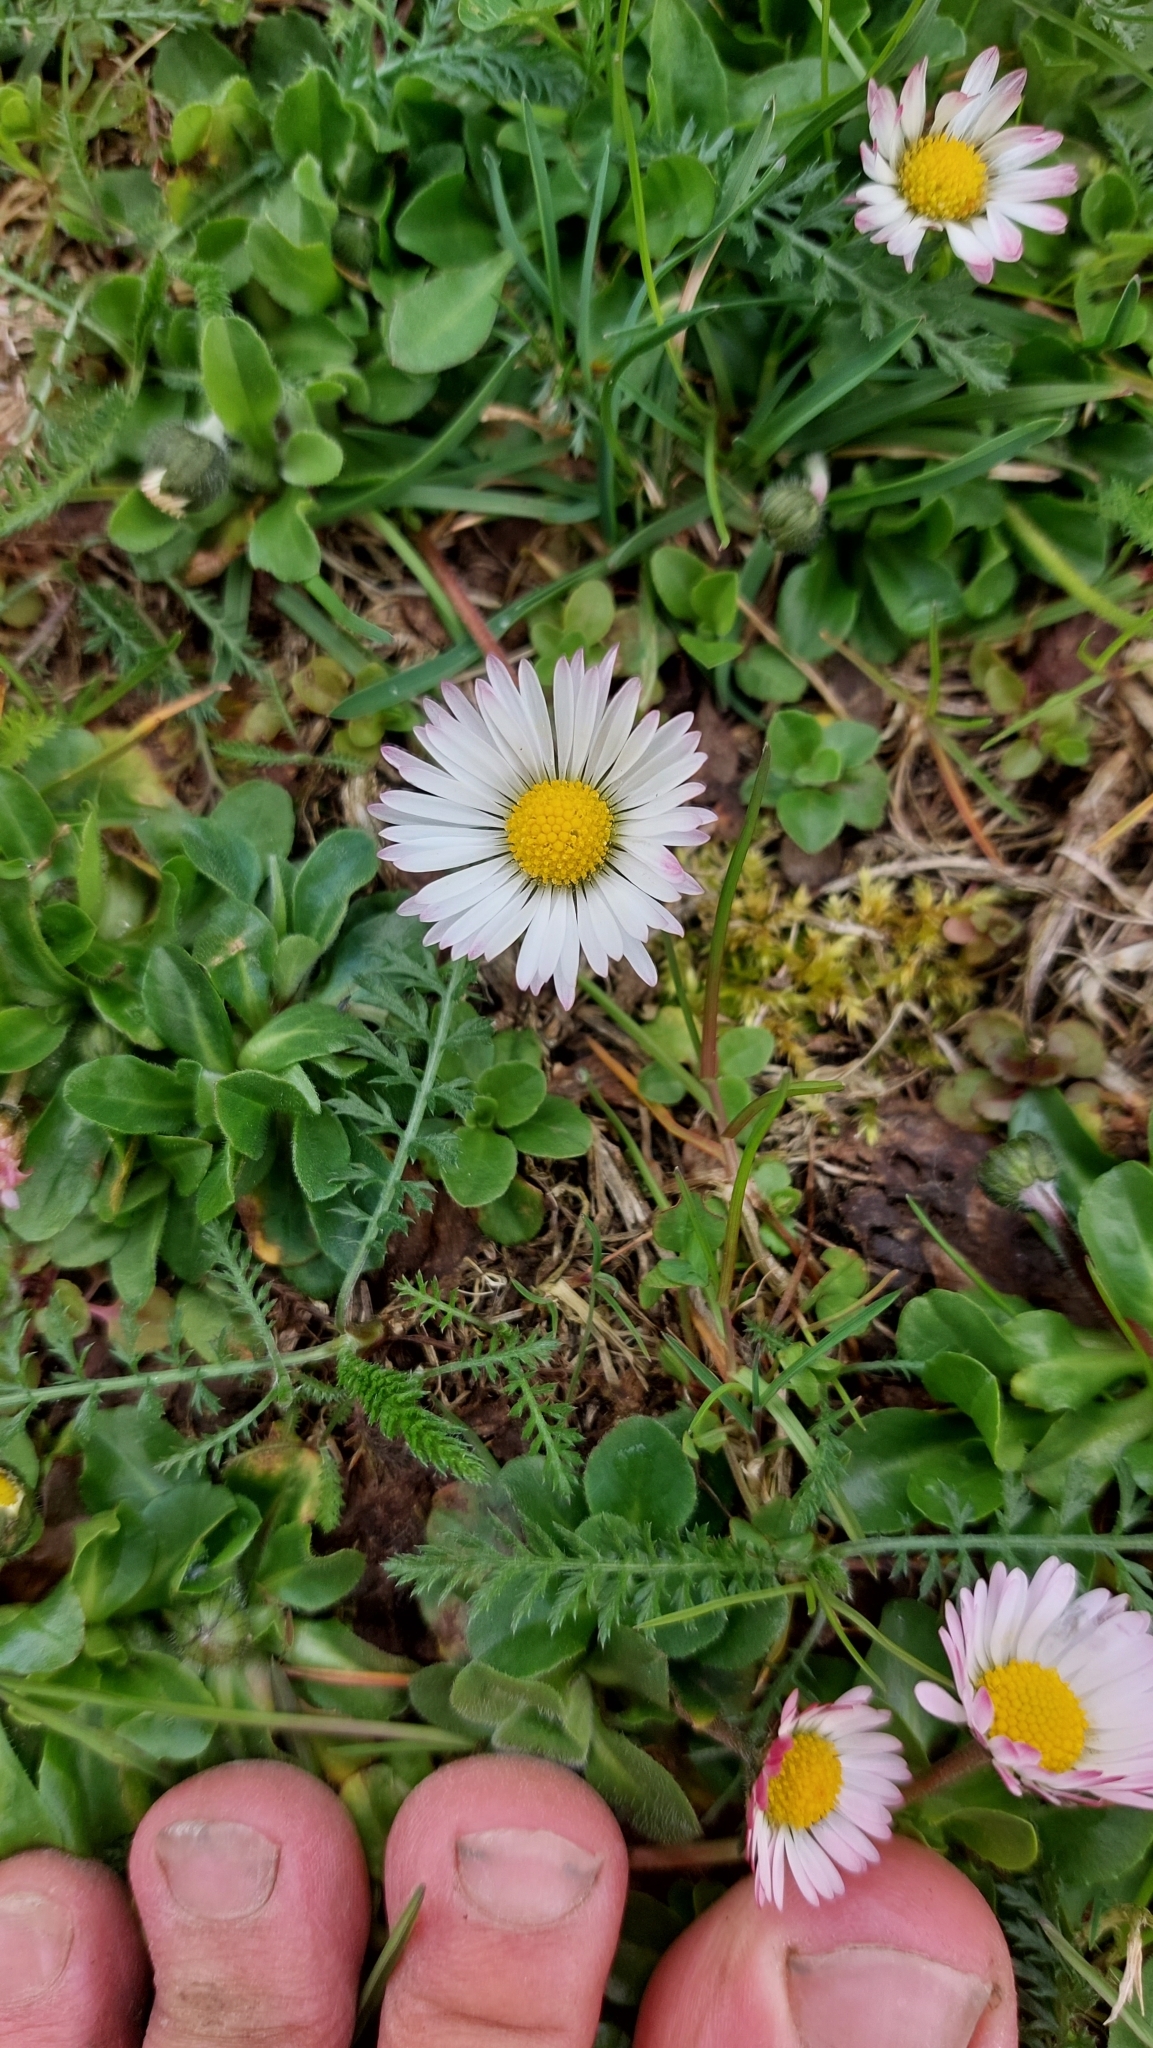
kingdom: Plantae
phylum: Tracheophyta
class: Magnoliopsida
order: Asterales
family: Asteraceae
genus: Bellis
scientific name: Bellis perennis
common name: Lawndaisy
